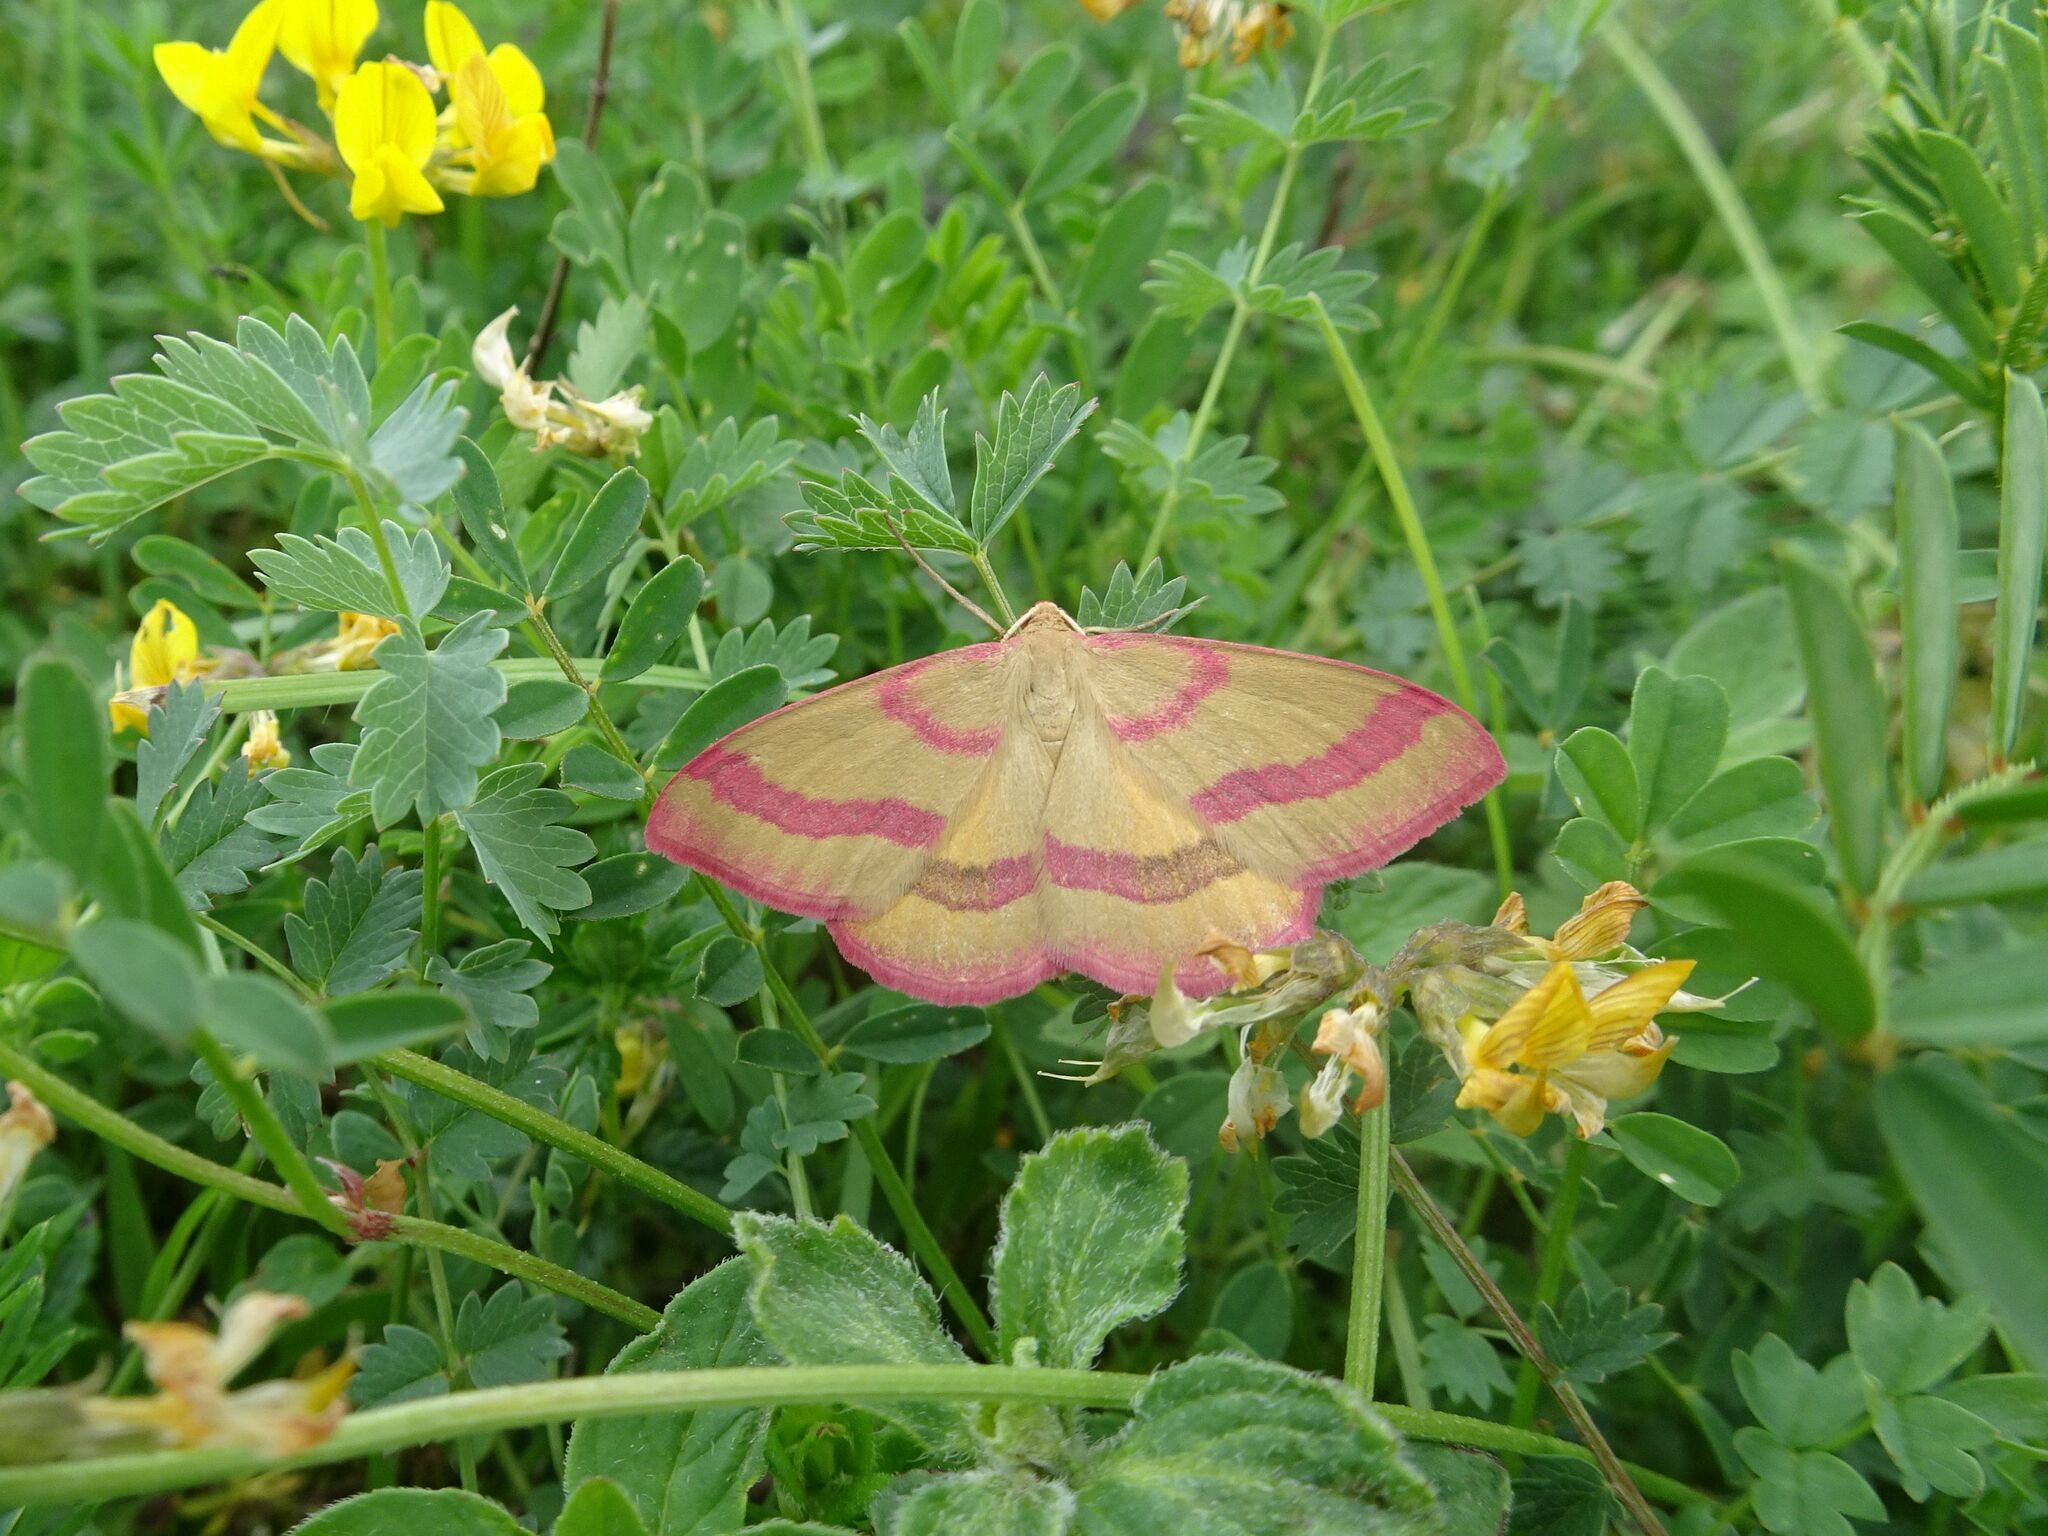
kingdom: Animalia
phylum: Arthropoda
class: Insecta
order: Lepidoptera
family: Geometridae
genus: Rhodostrophia
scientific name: Rhodostrophia calabra
